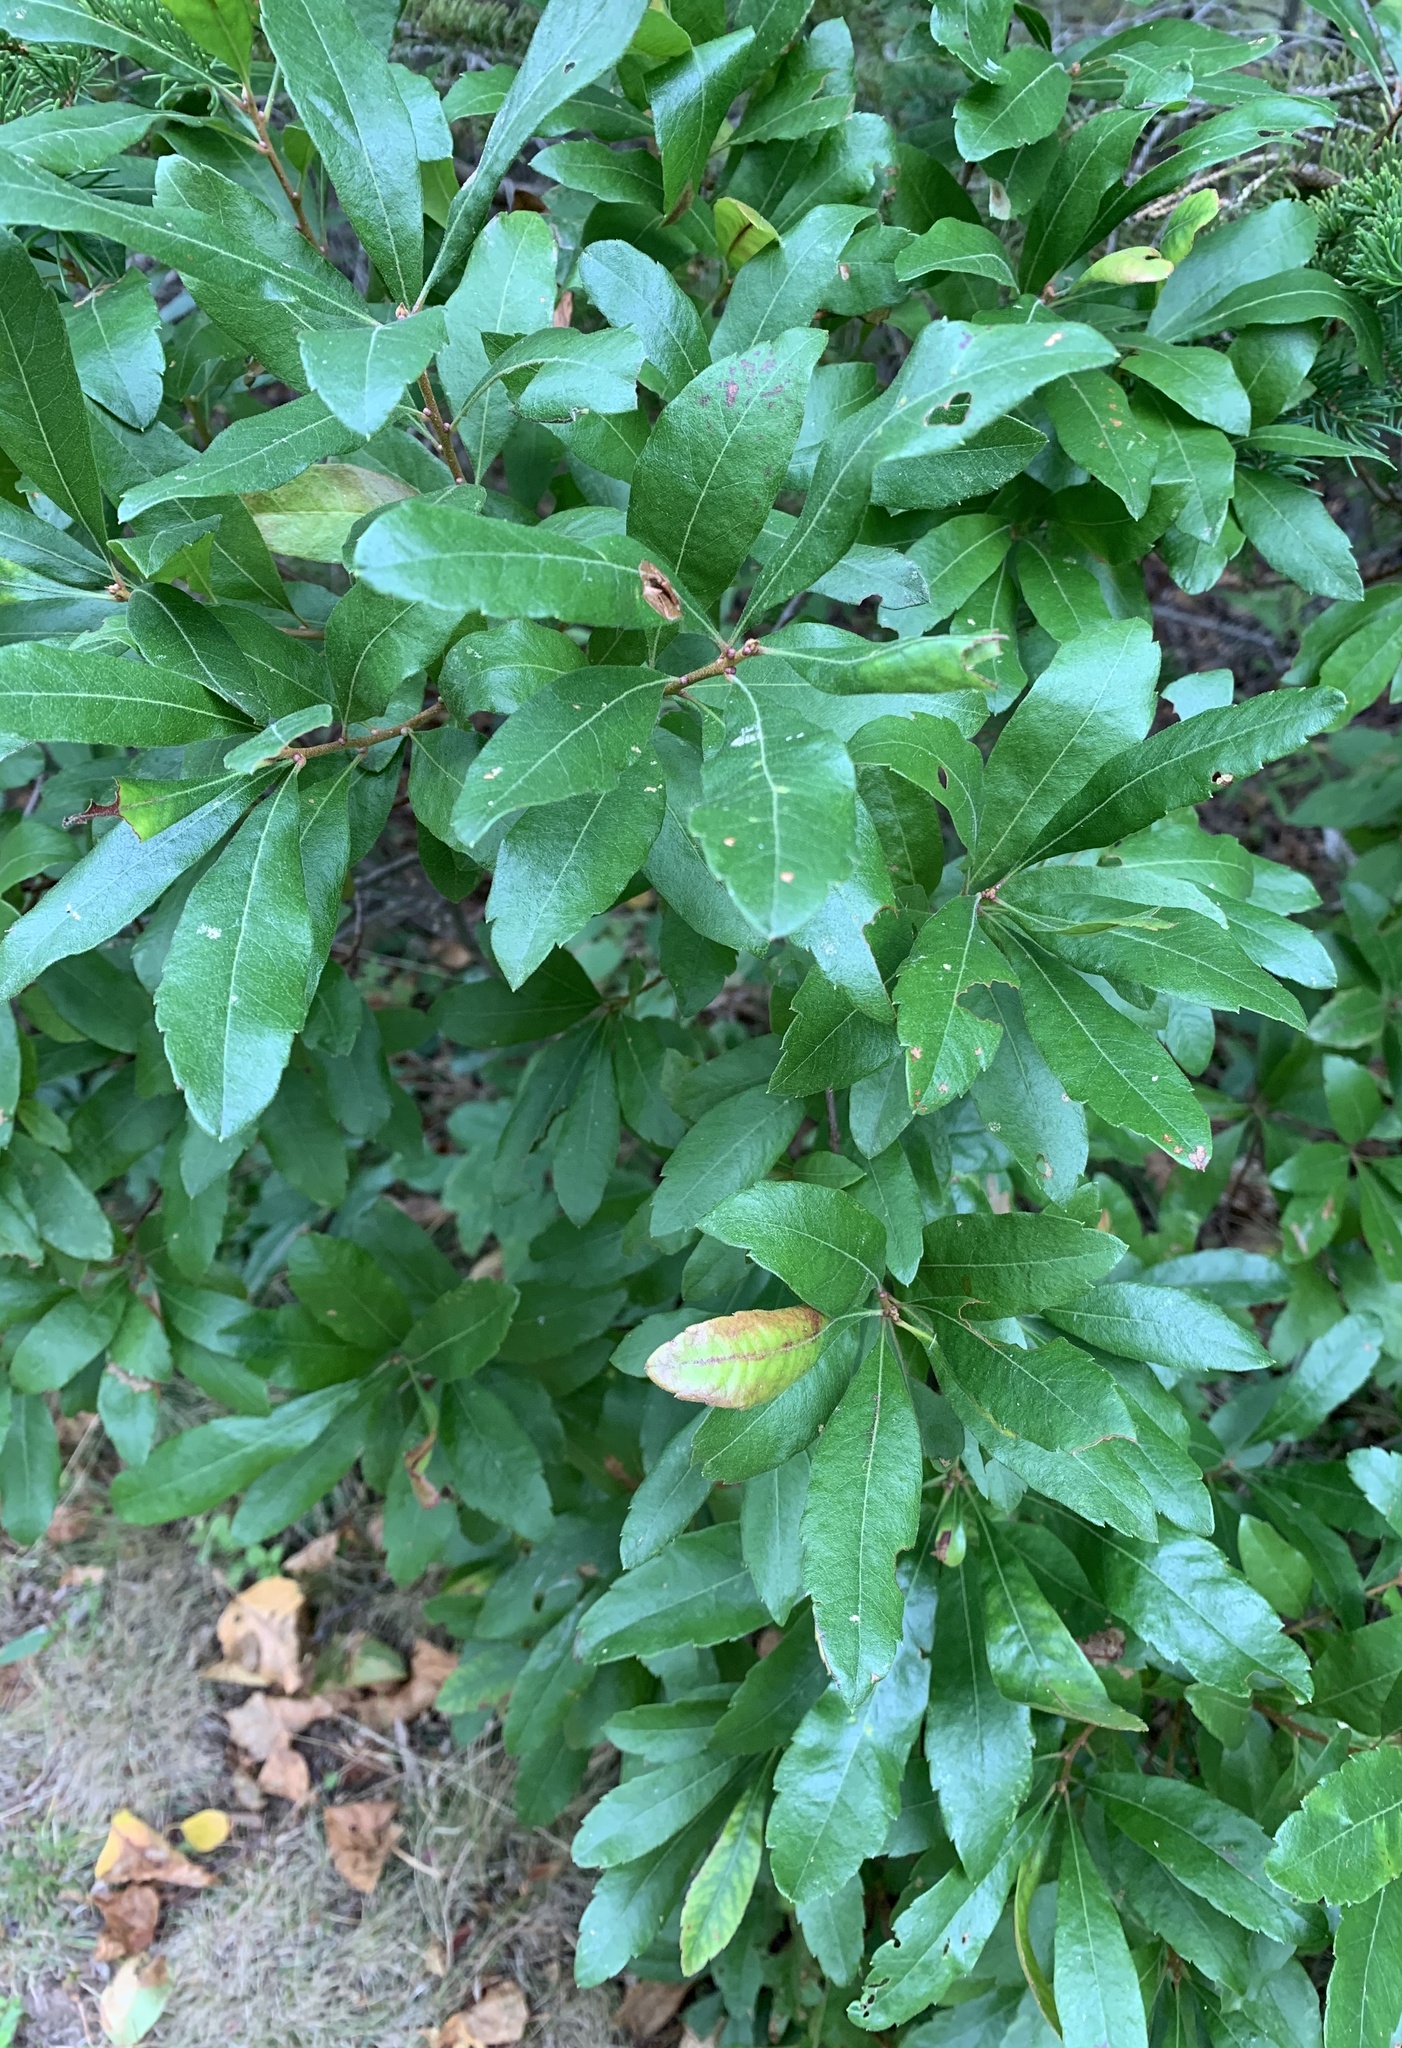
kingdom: Plantae
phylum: Tracheophyta
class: Magnoliopsida
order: Fagales
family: Myricaceae
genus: Morella
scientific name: Morella pensylvanica
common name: Northern bayberry
